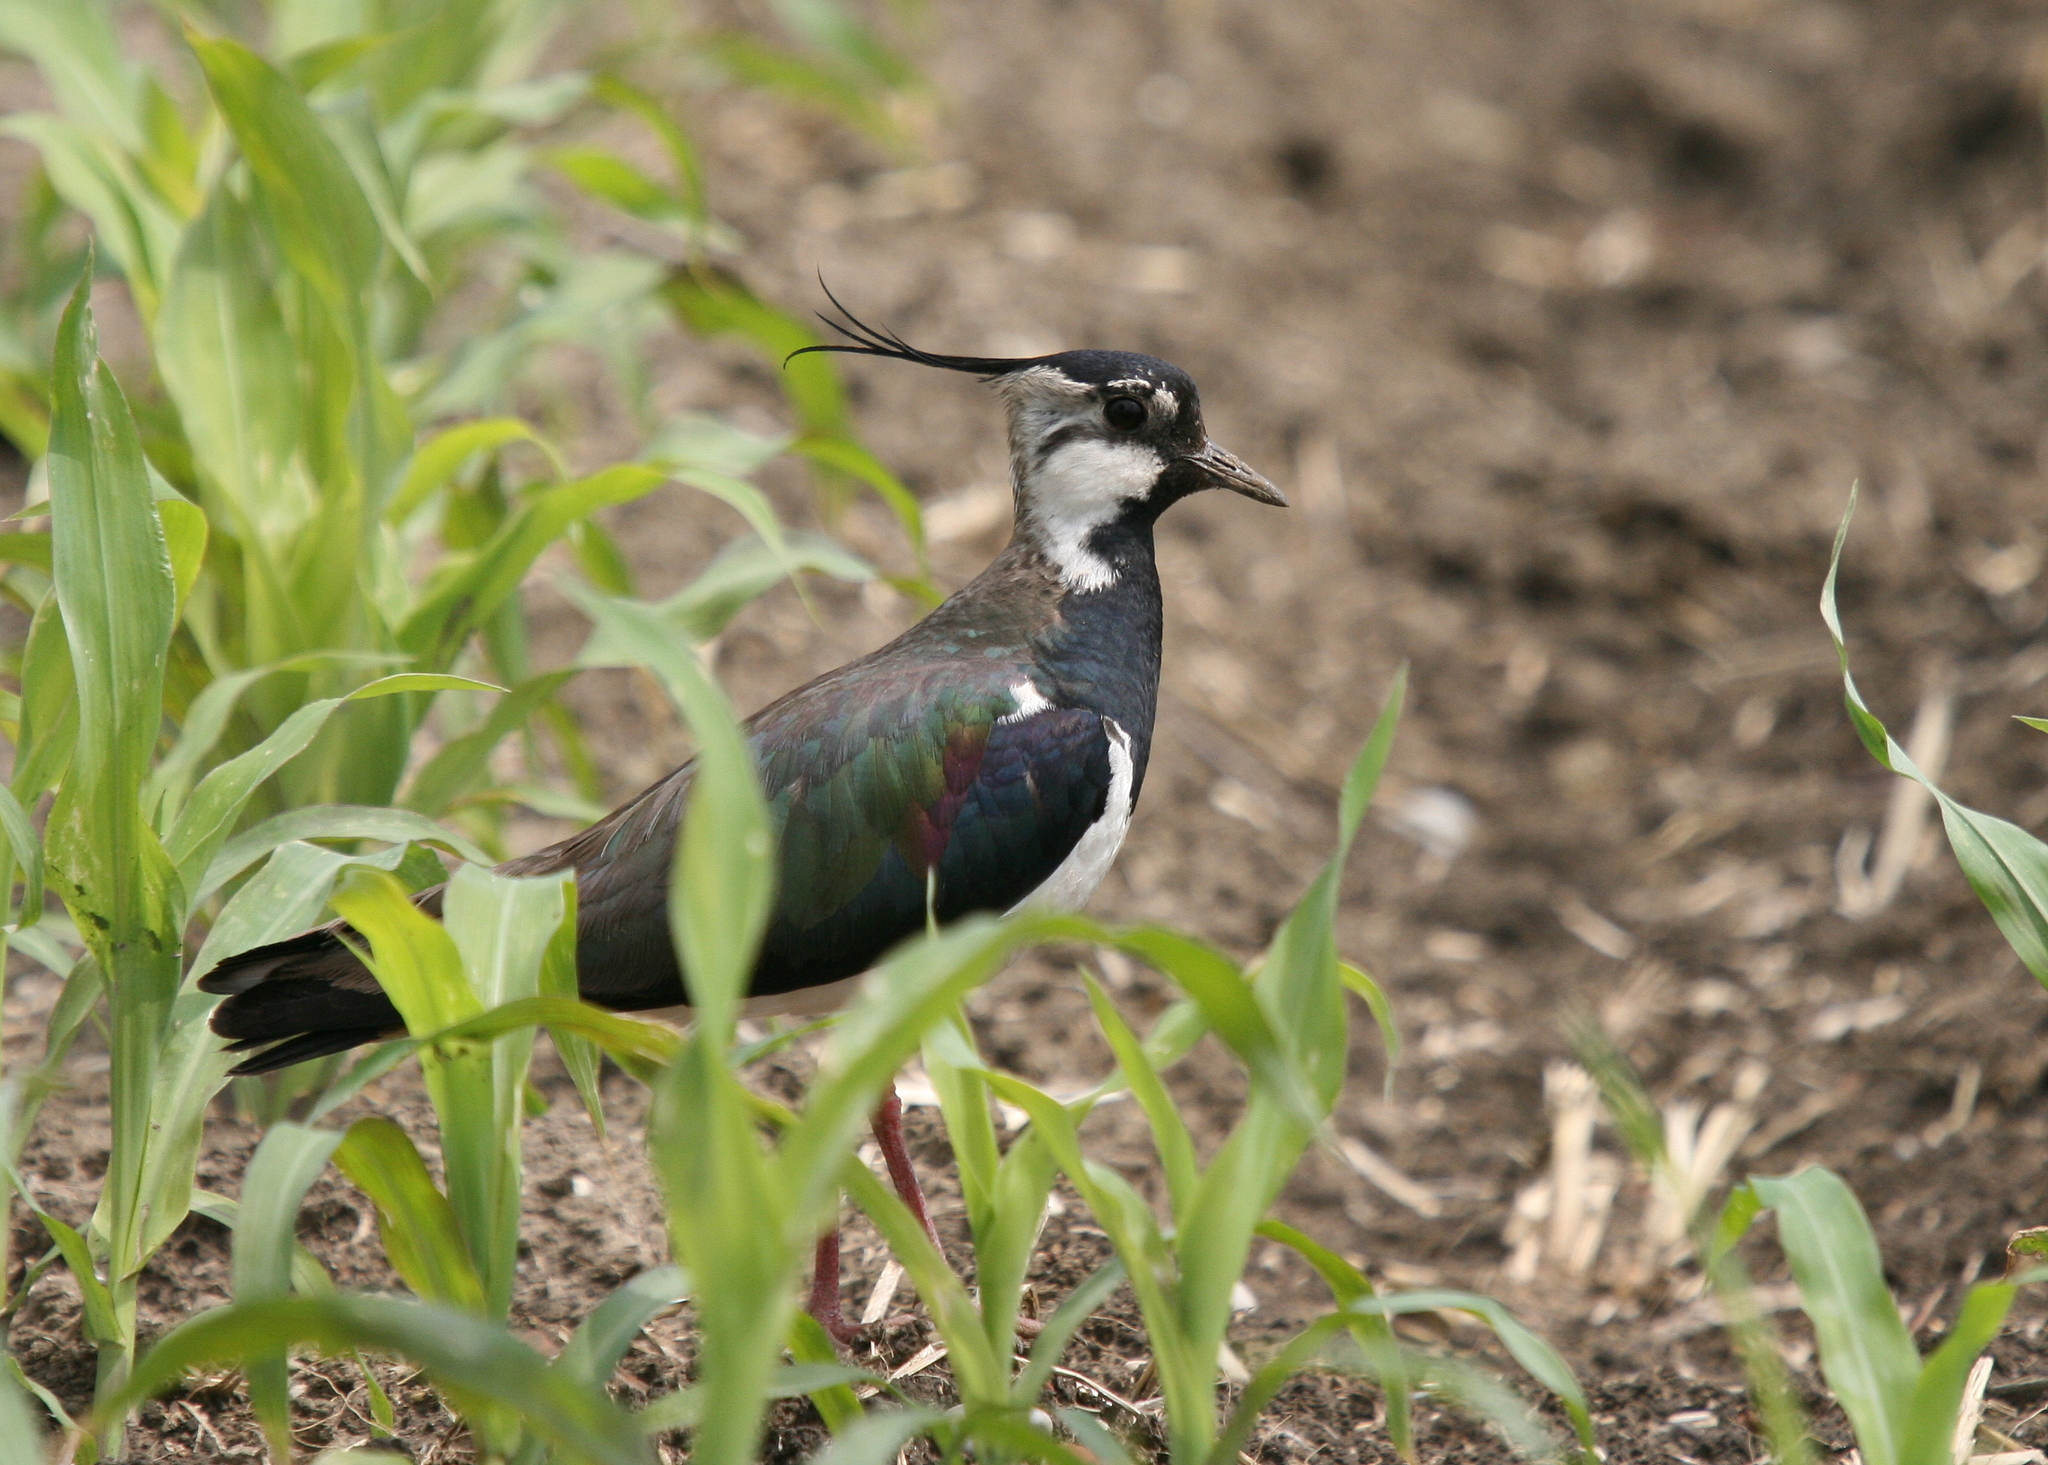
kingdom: Animalia
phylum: Chordata
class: Aves
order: Charadriiformes
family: Charadriidae
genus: Vanellus
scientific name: Vanellus vanellus
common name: Northern lapwing
